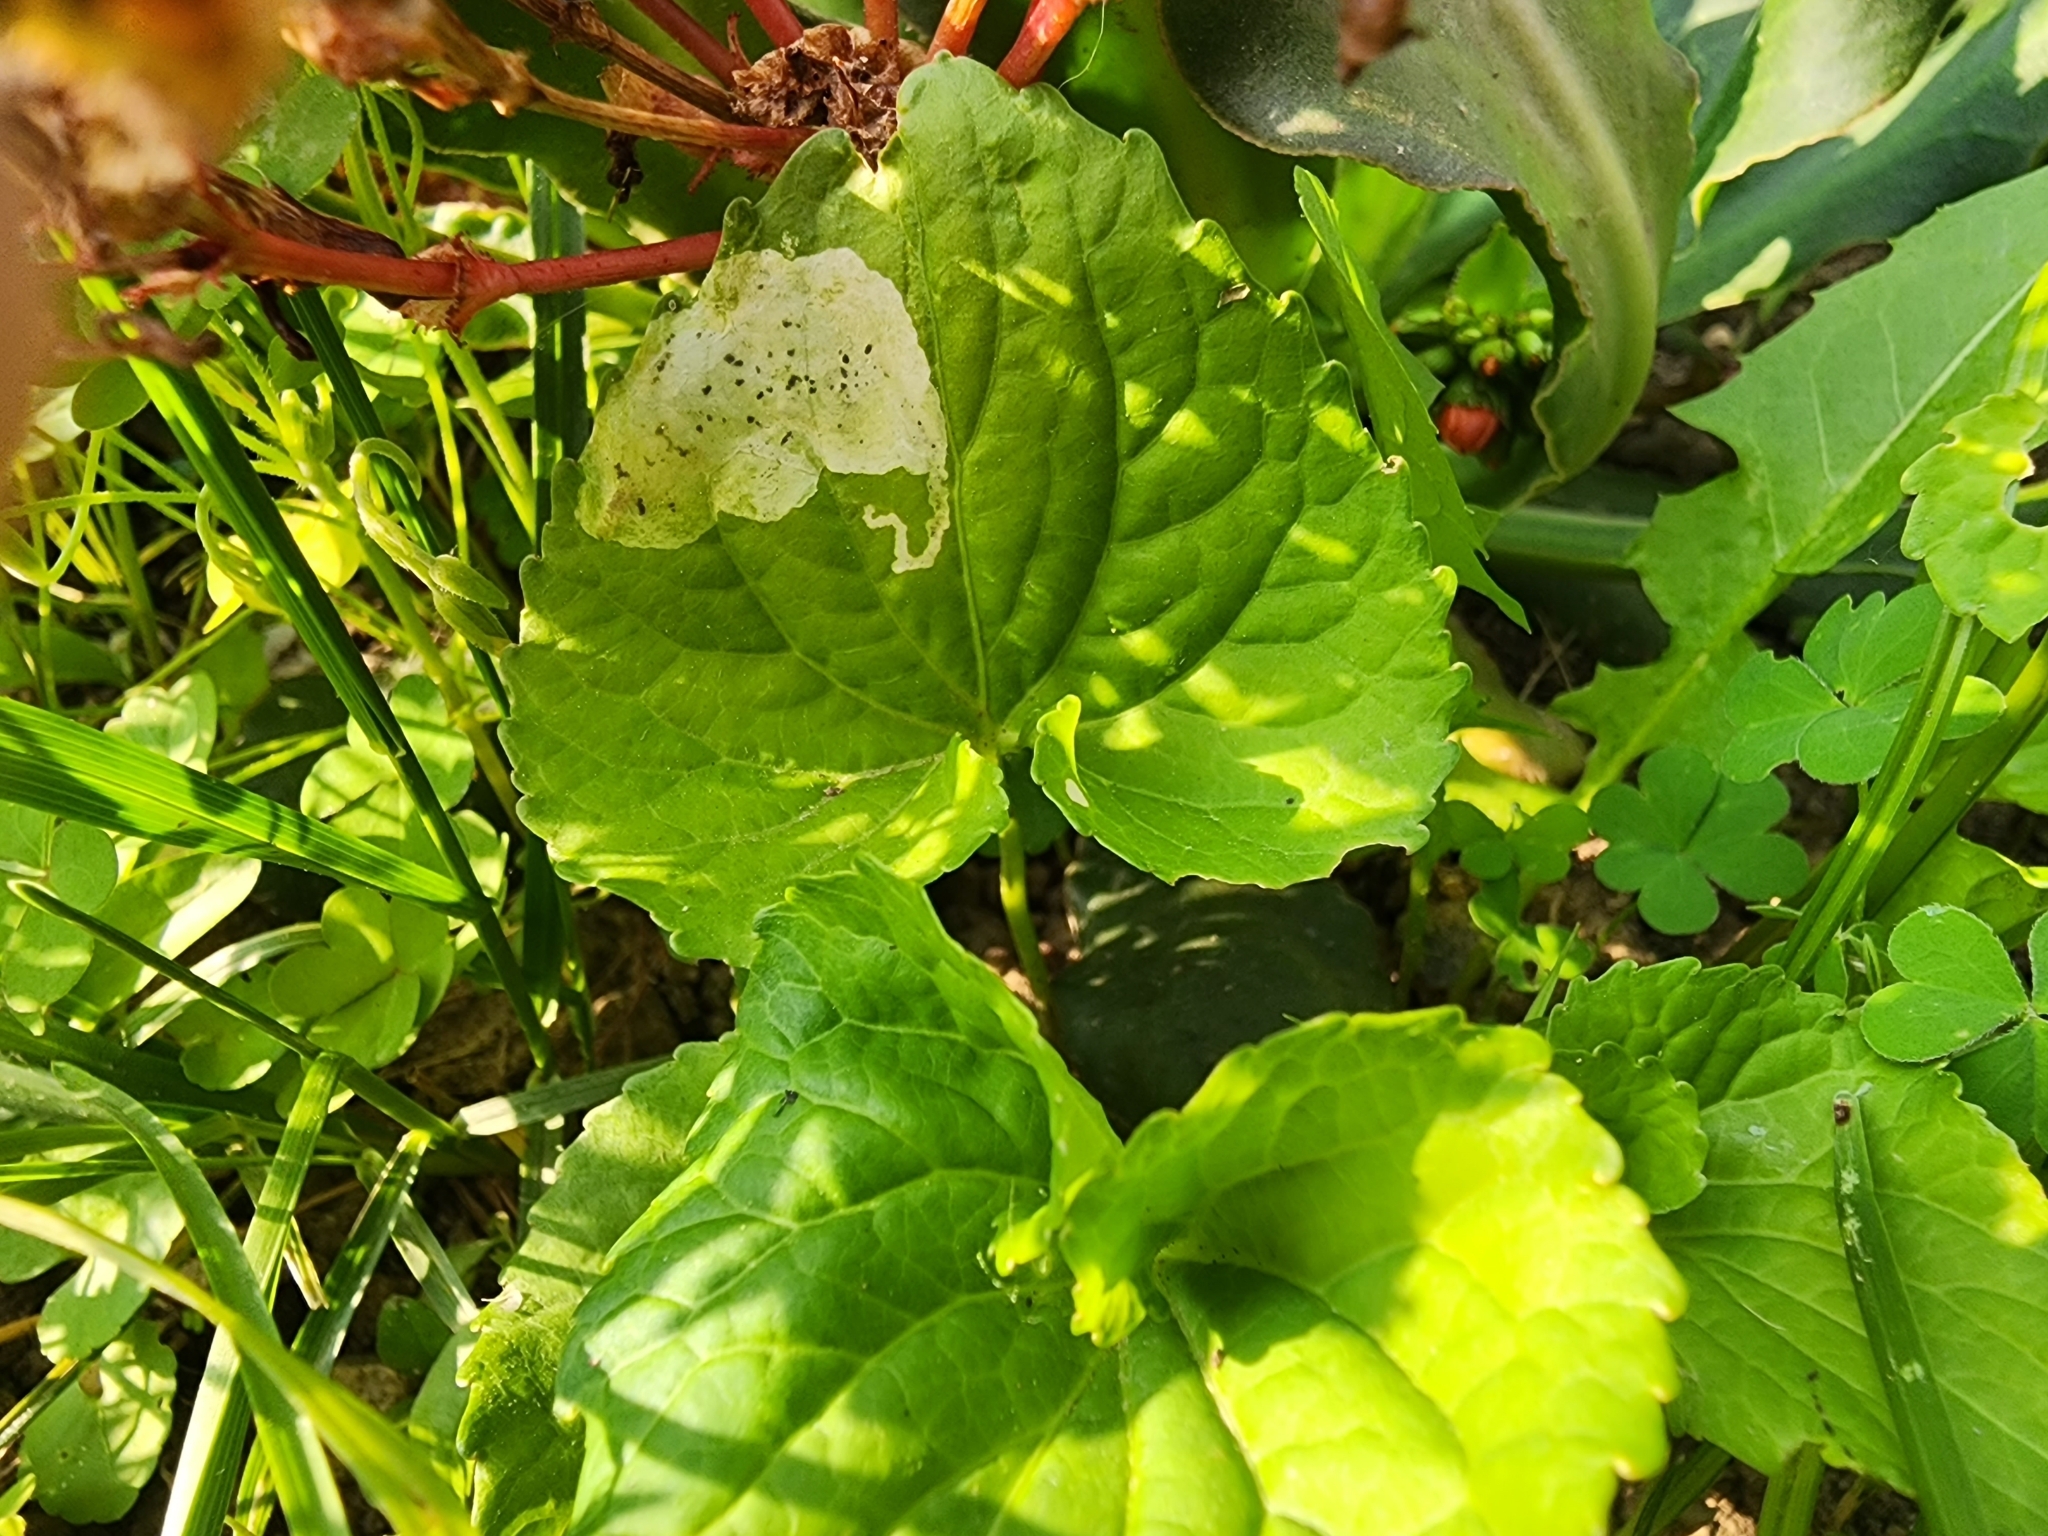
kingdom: Animalia
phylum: Arthropoda
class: Insecta
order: Diptera
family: Agromyzidae
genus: Liriomyza
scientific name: Liriomyza violivora
